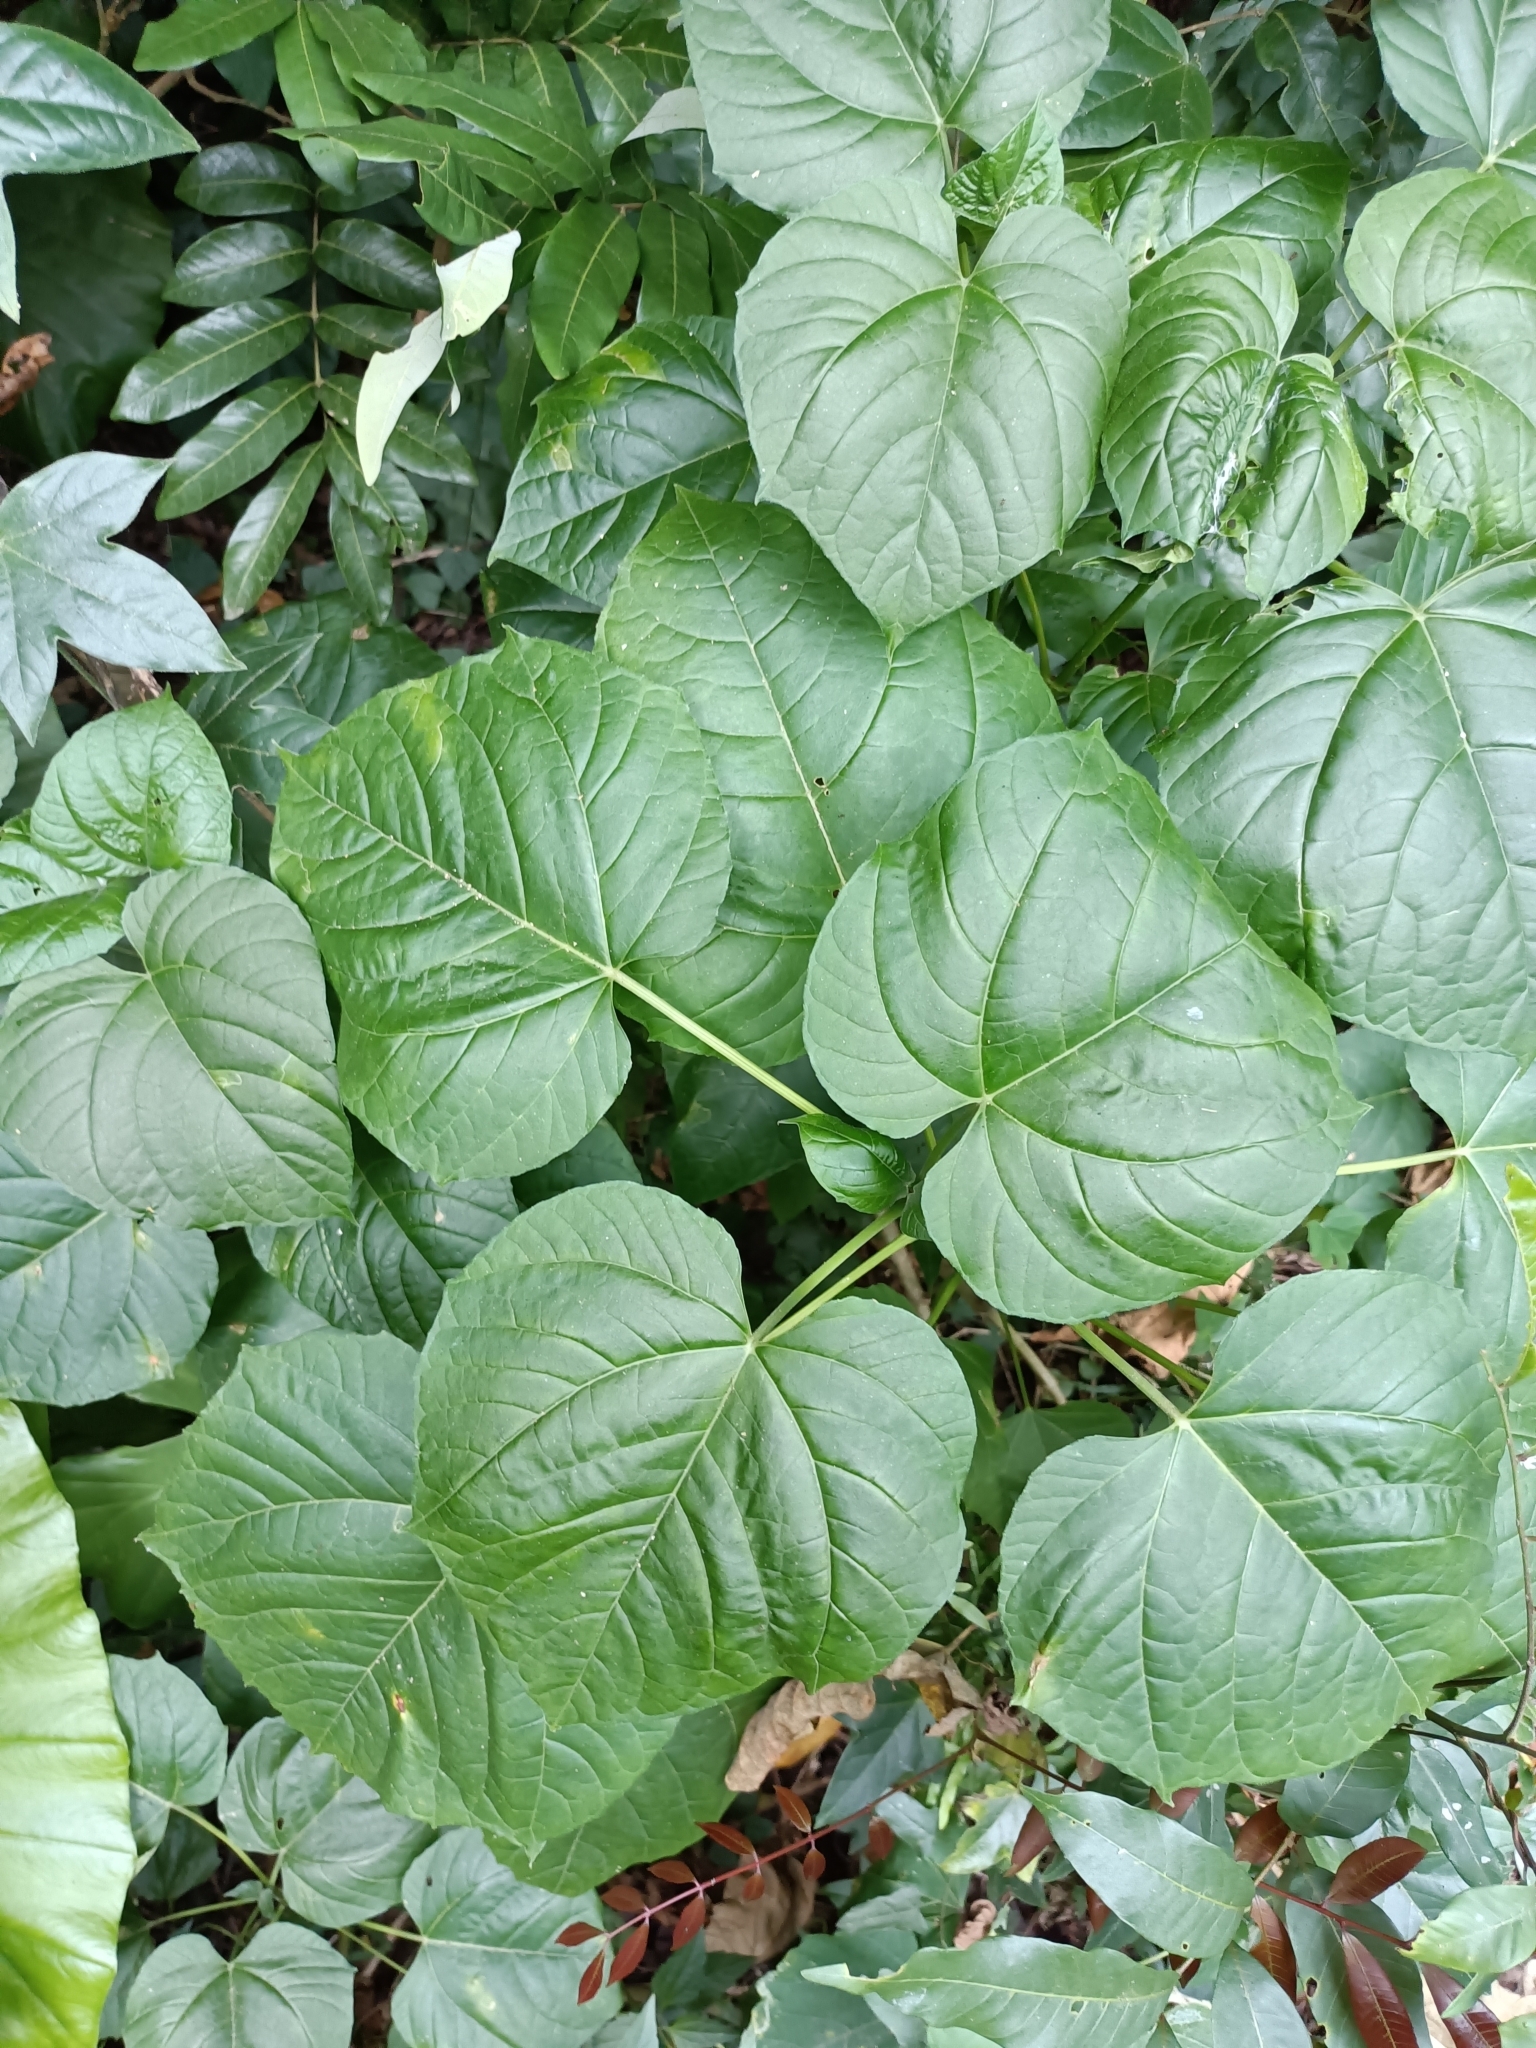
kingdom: Plantae
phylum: Tracheophyta
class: Magnoliopsida
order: Lamiales
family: Lamiaceae
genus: Clerodendrum
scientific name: Clerodendrum japonicum
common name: Japanese glorybower
